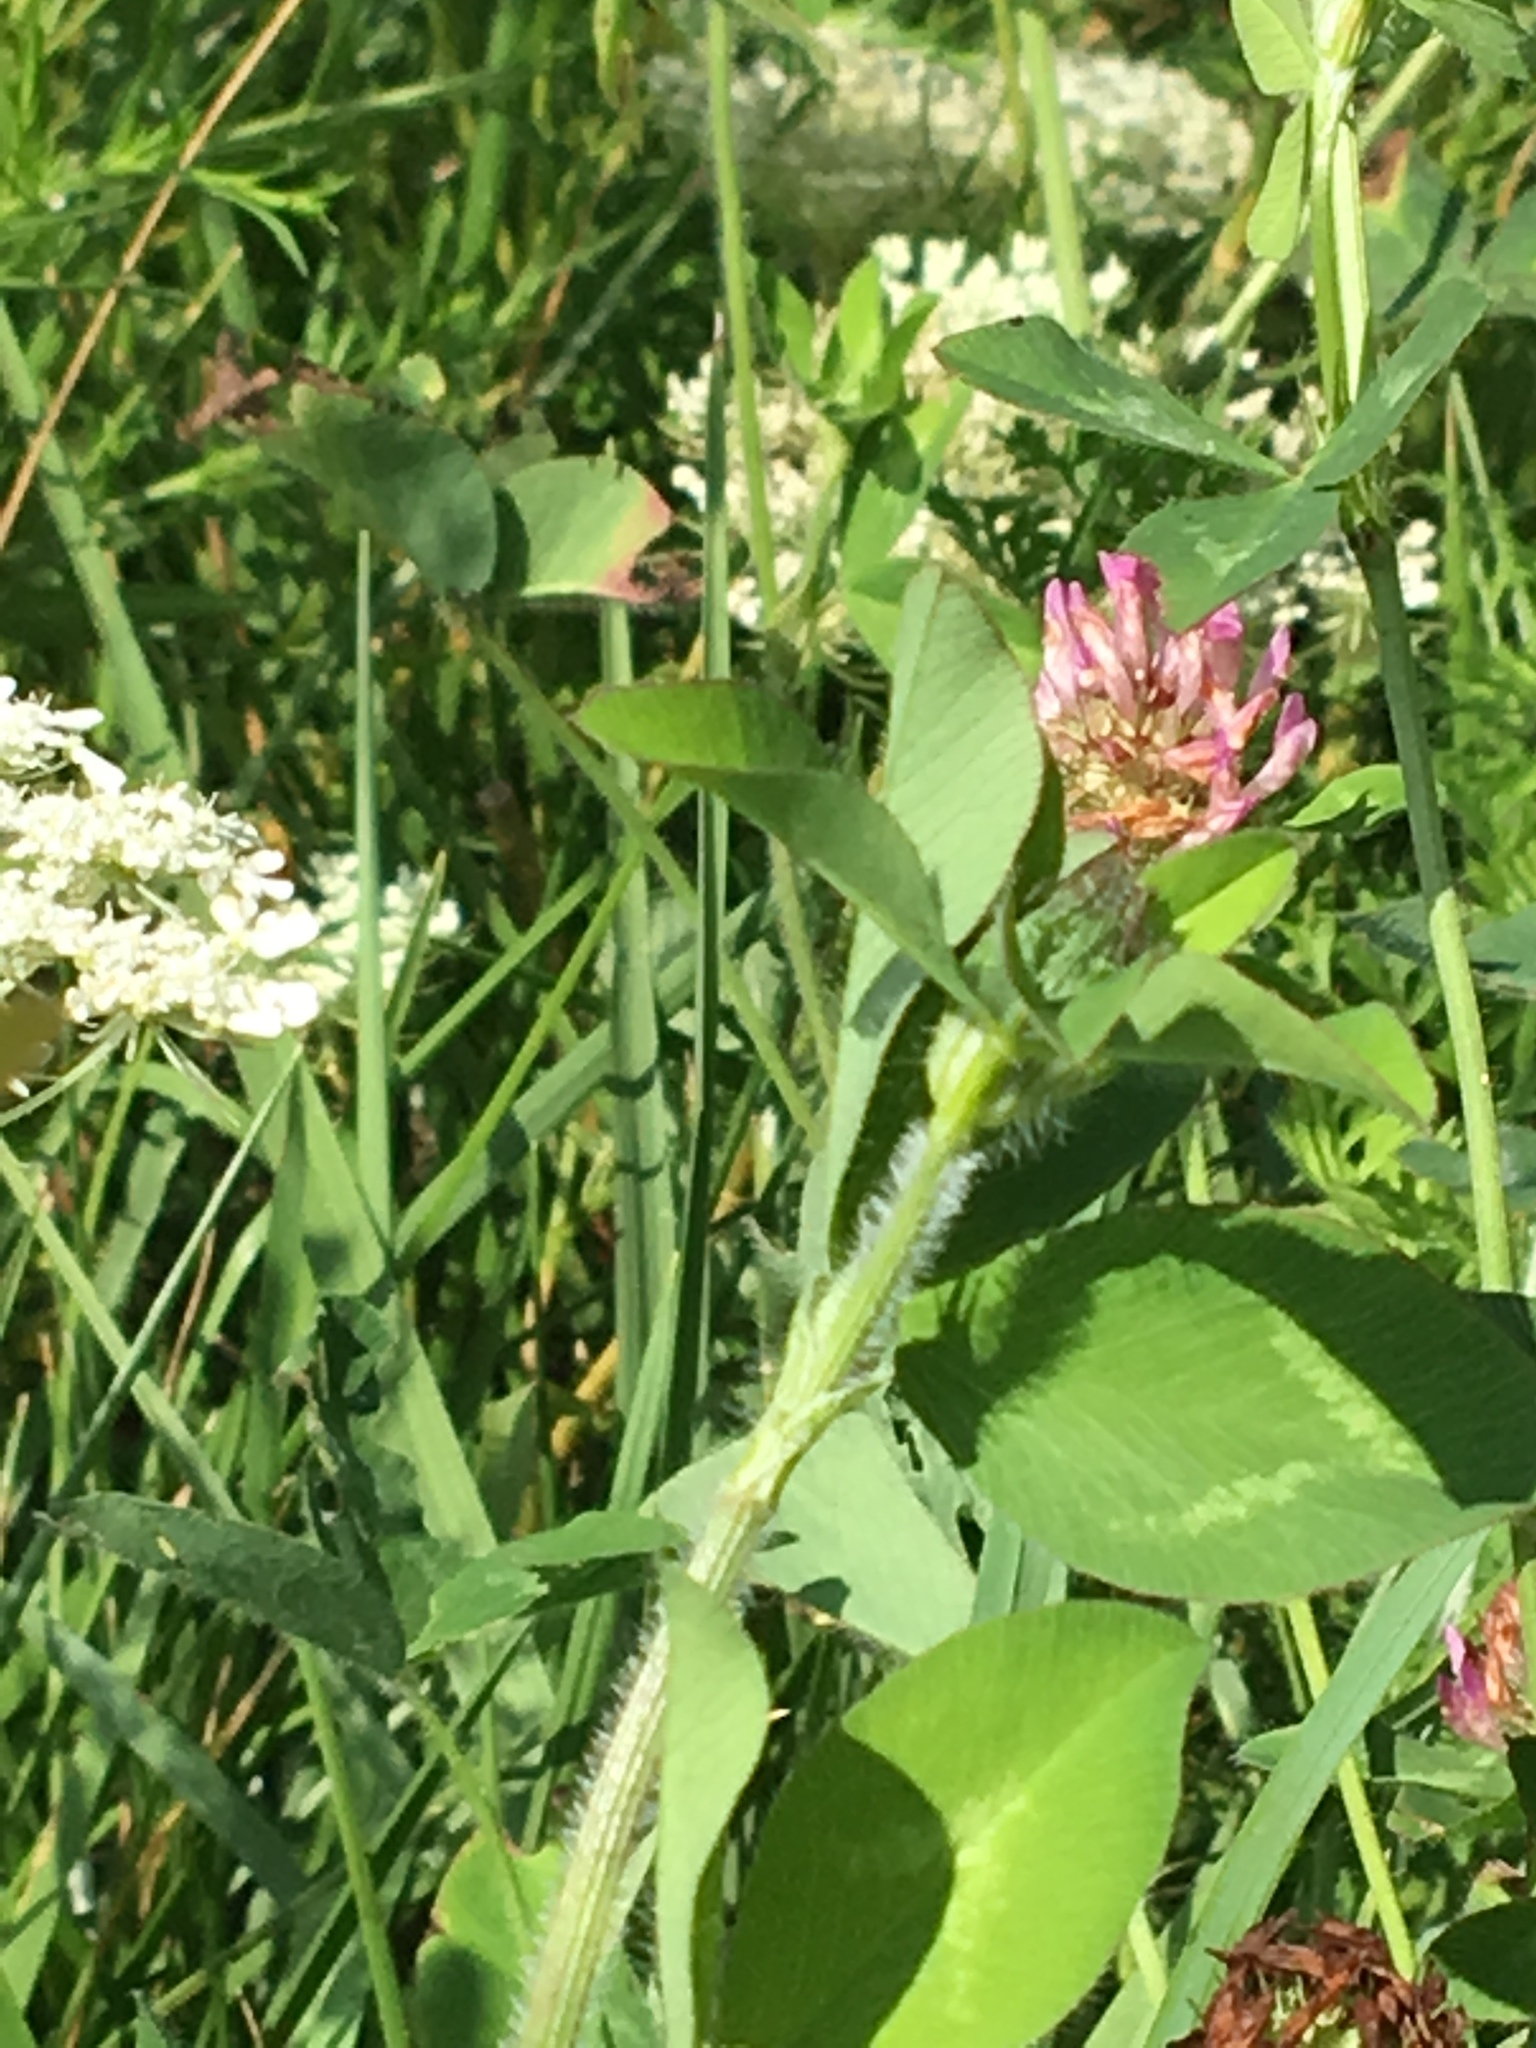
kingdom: Plantae
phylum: Tracheophyta
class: Magnoliopsida
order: Fabales
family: Fabaceae
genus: Trifolium
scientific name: Trifolium pratense
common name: Red clover
